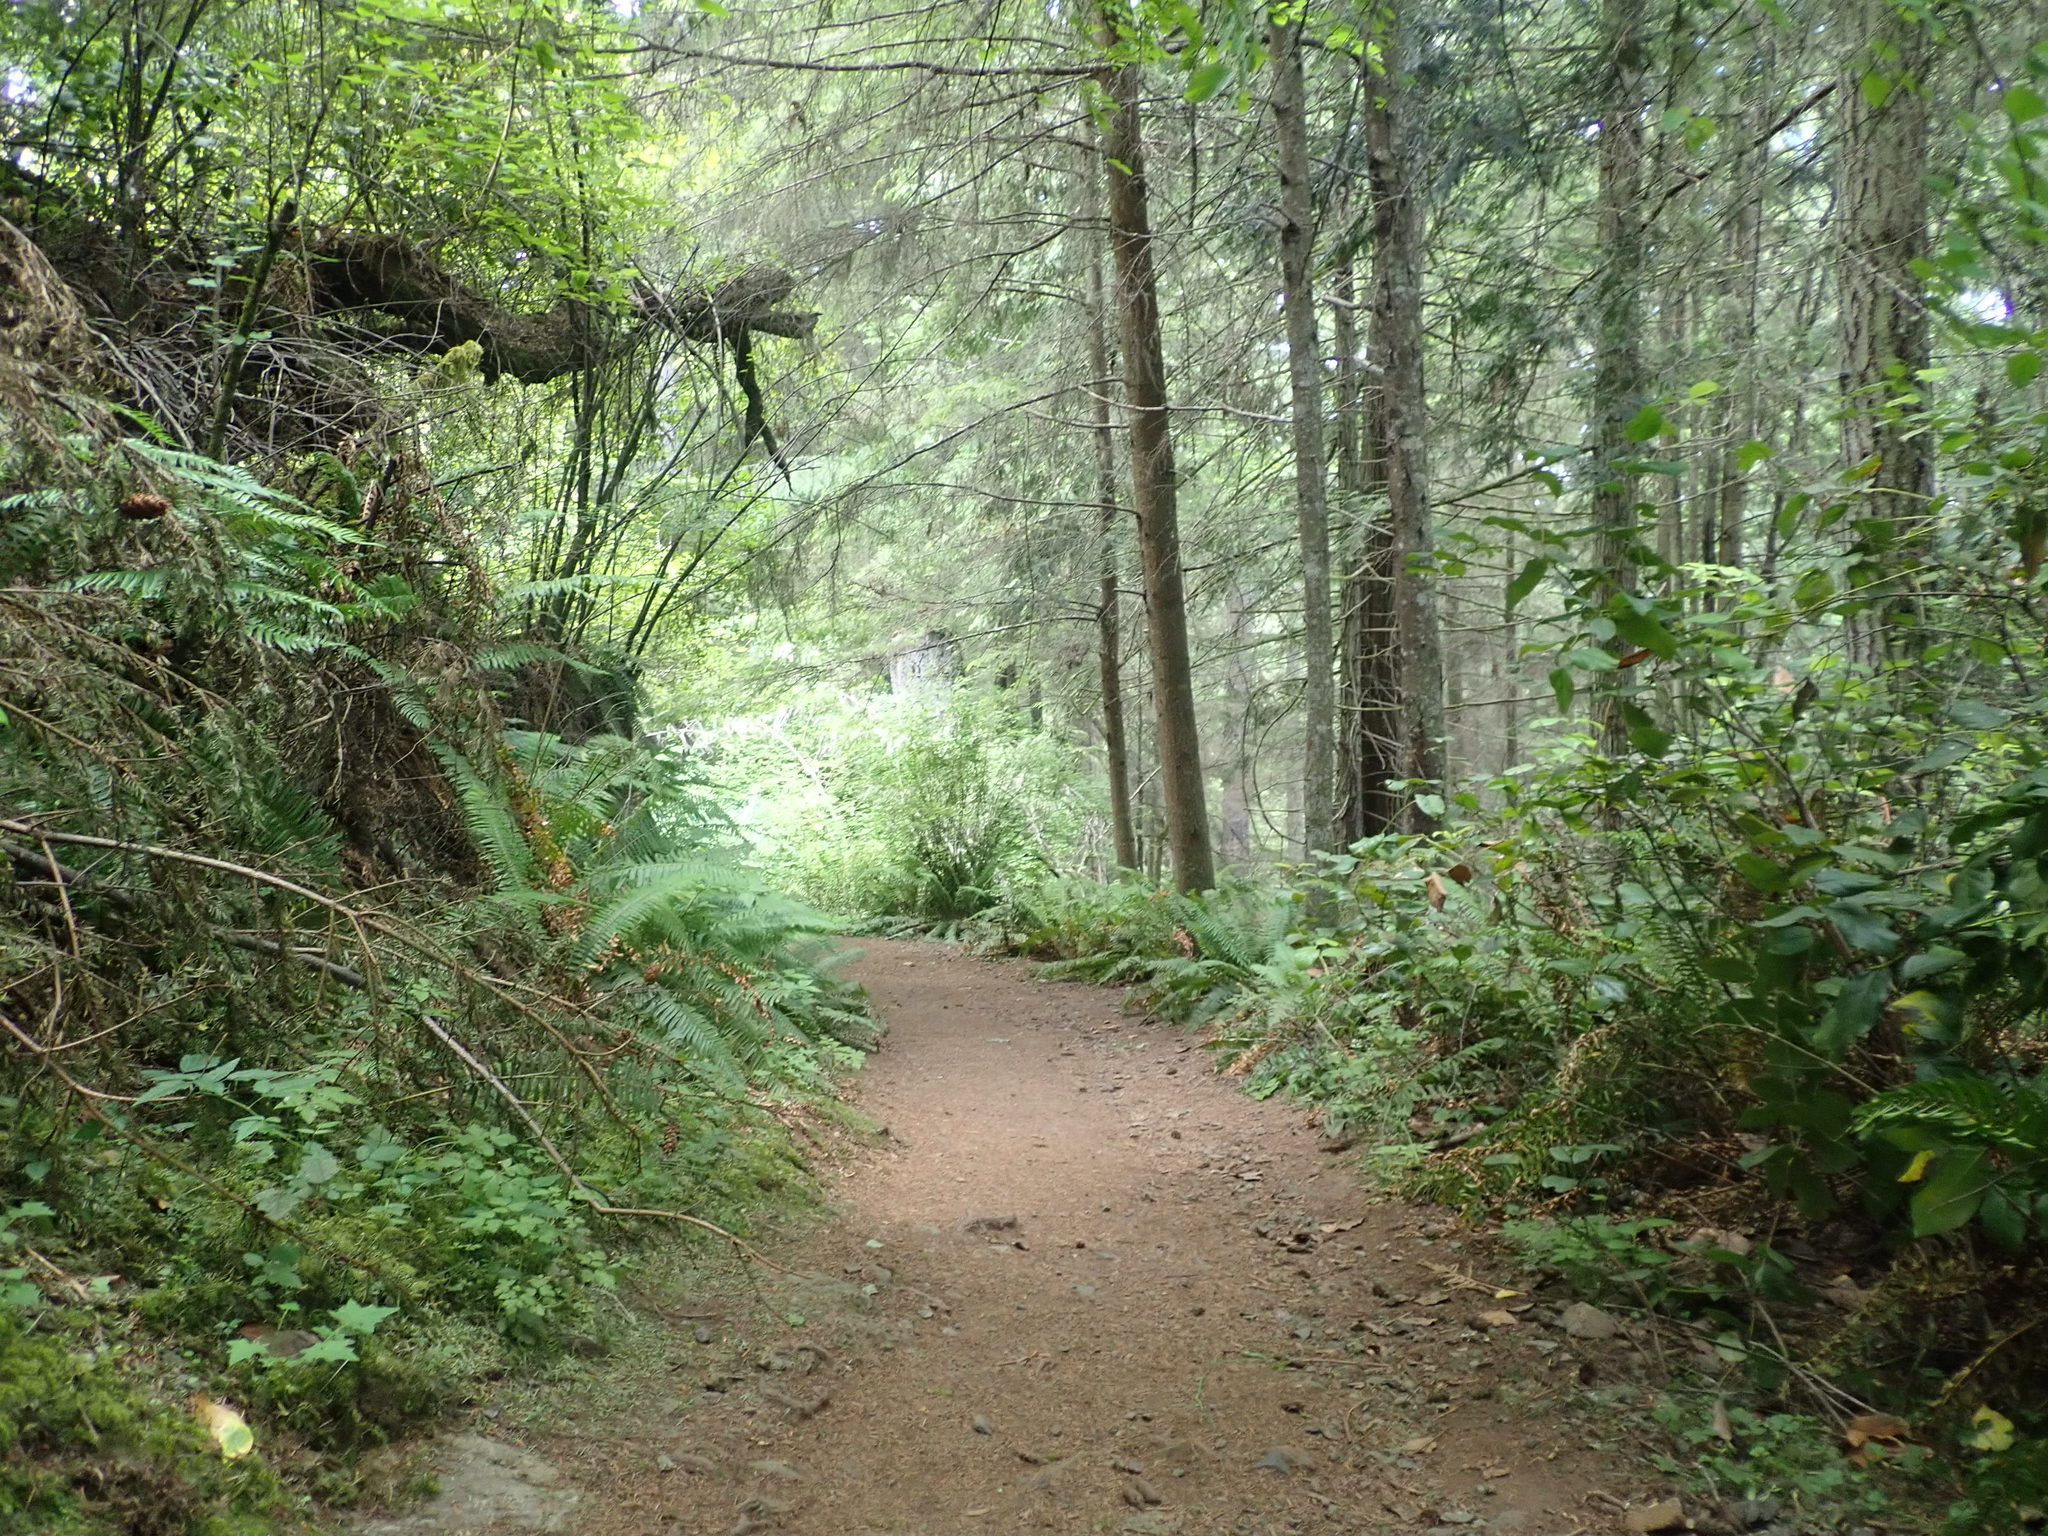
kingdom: Plantae
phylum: Tracheophyta
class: Magnoliopsida
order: Myrtales
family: Onagraceae
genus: Circaea
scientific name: Circaea alpina
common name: Alpine enchanter's-nightshade
